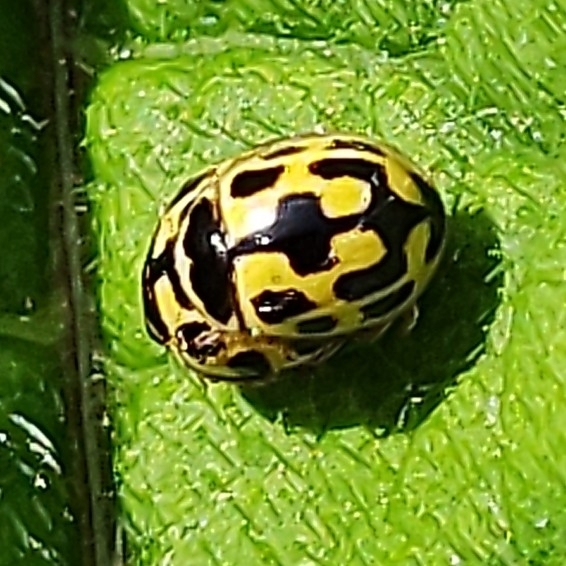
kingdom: Animalia
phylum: Arthropoda
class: Insecta
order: Coleoptera
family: Coccinellidae
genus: Propylaea
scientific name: Propylaea quatuordecimpunctata
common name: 14-spotted ladybird beetle
